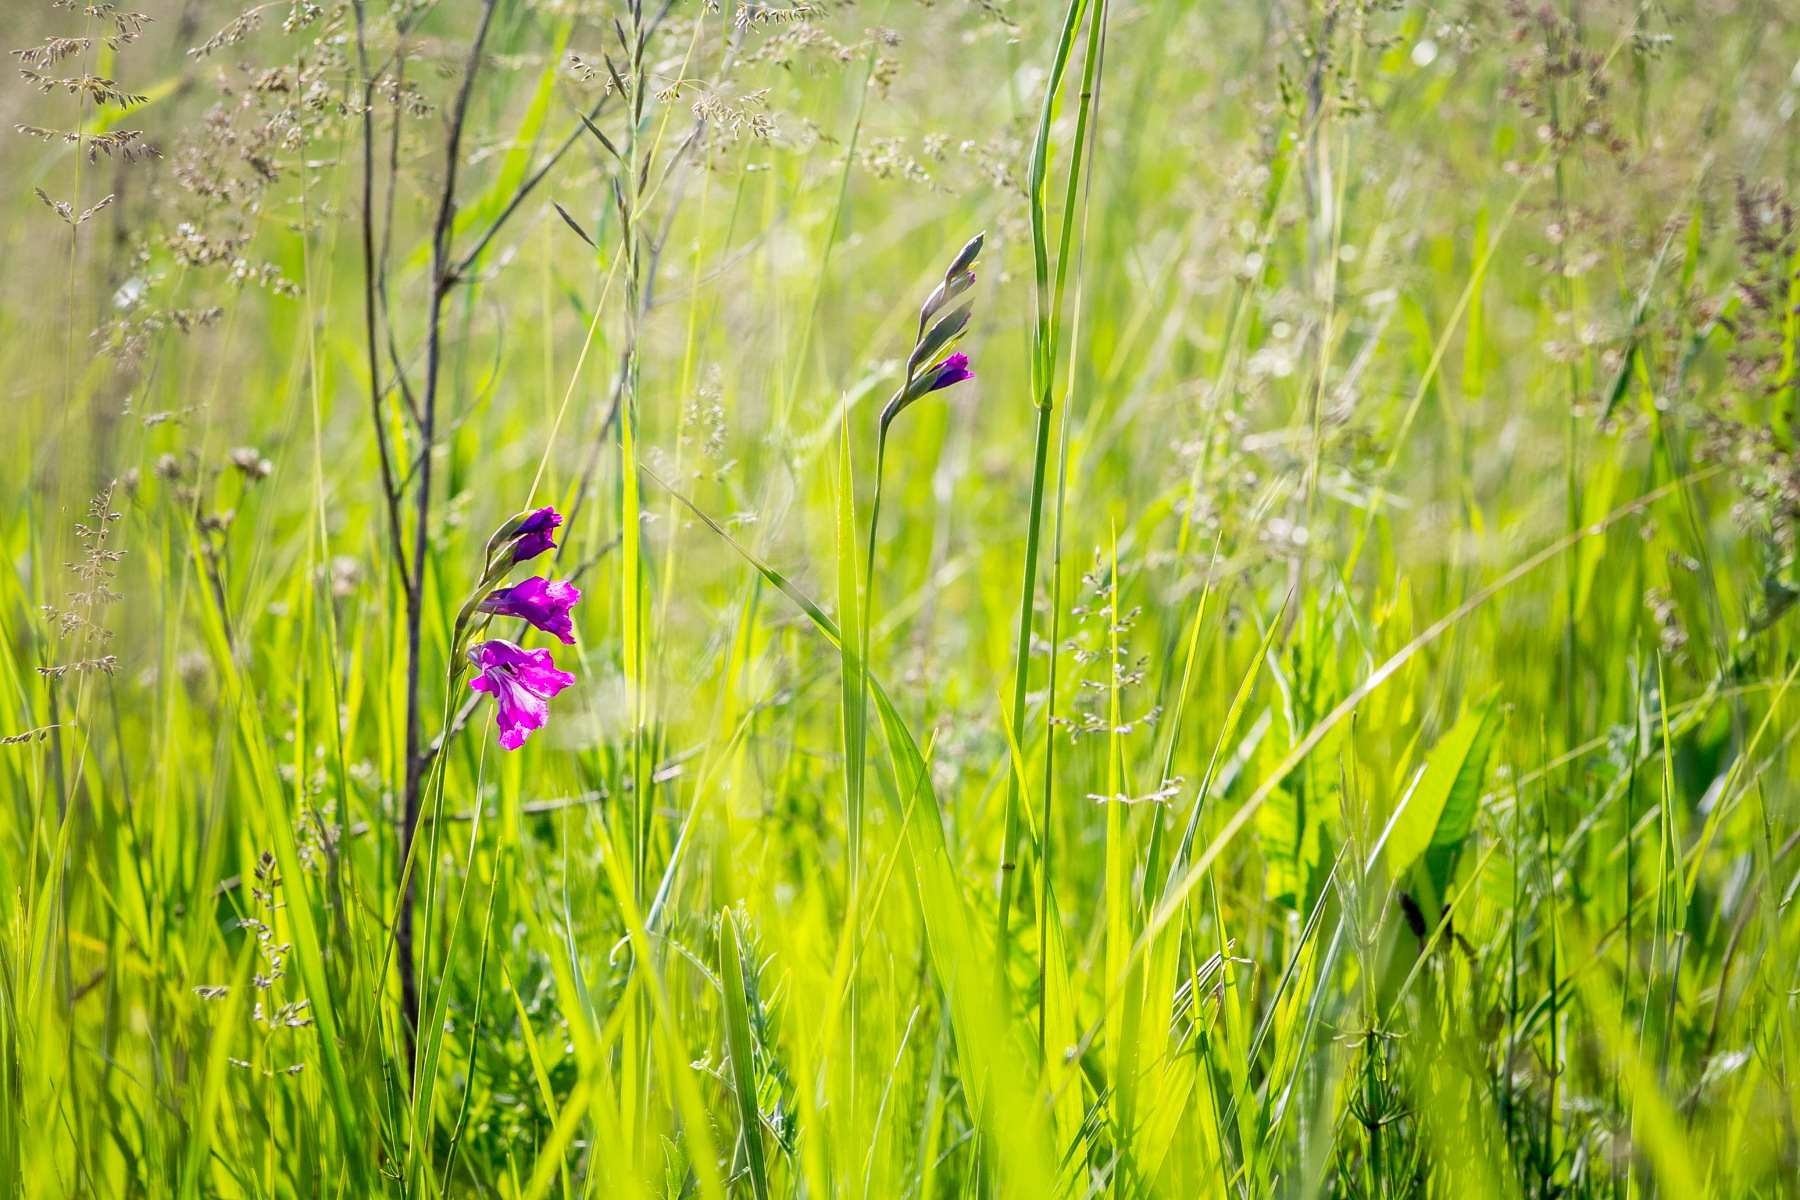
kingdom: Plantae
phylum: Tracheophyta
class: Liliopsida
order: Asparagales
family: Iridaceae
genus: Gladiolus
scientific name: Gladiolus tenuis
